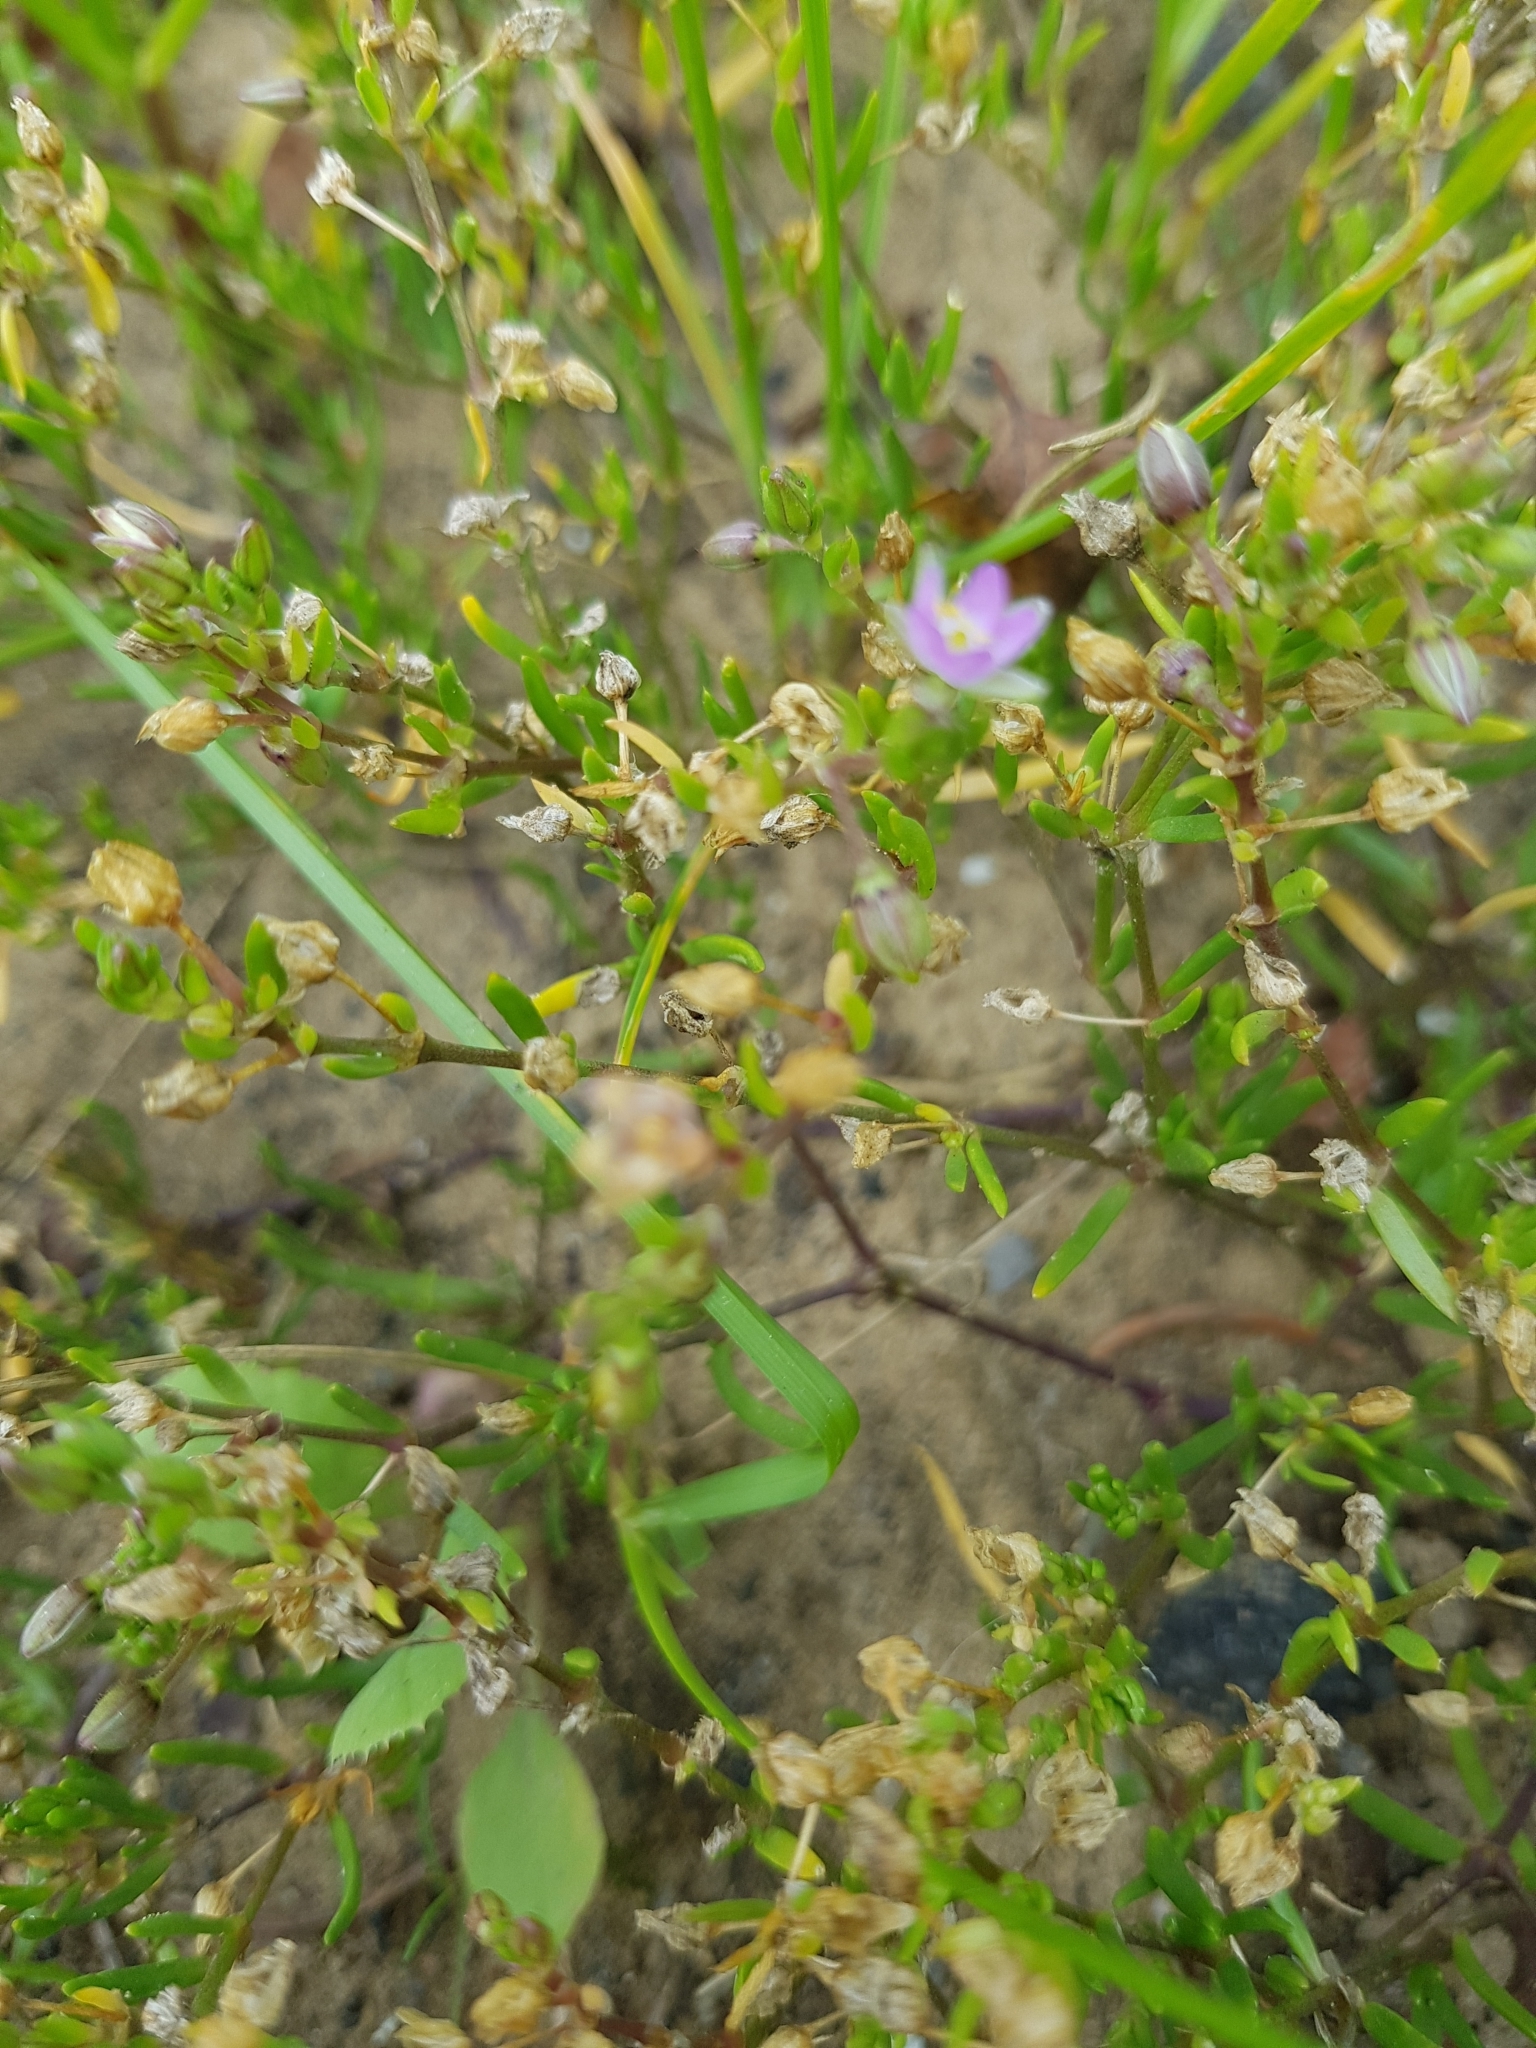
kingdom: Plantae
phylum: Tracheophyta
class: Magnoliopsida
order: Caryophyllales
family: Caryophyllaceae
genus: Spergularia
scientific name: Spergularia marina
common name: Lesser sea-spurrey
